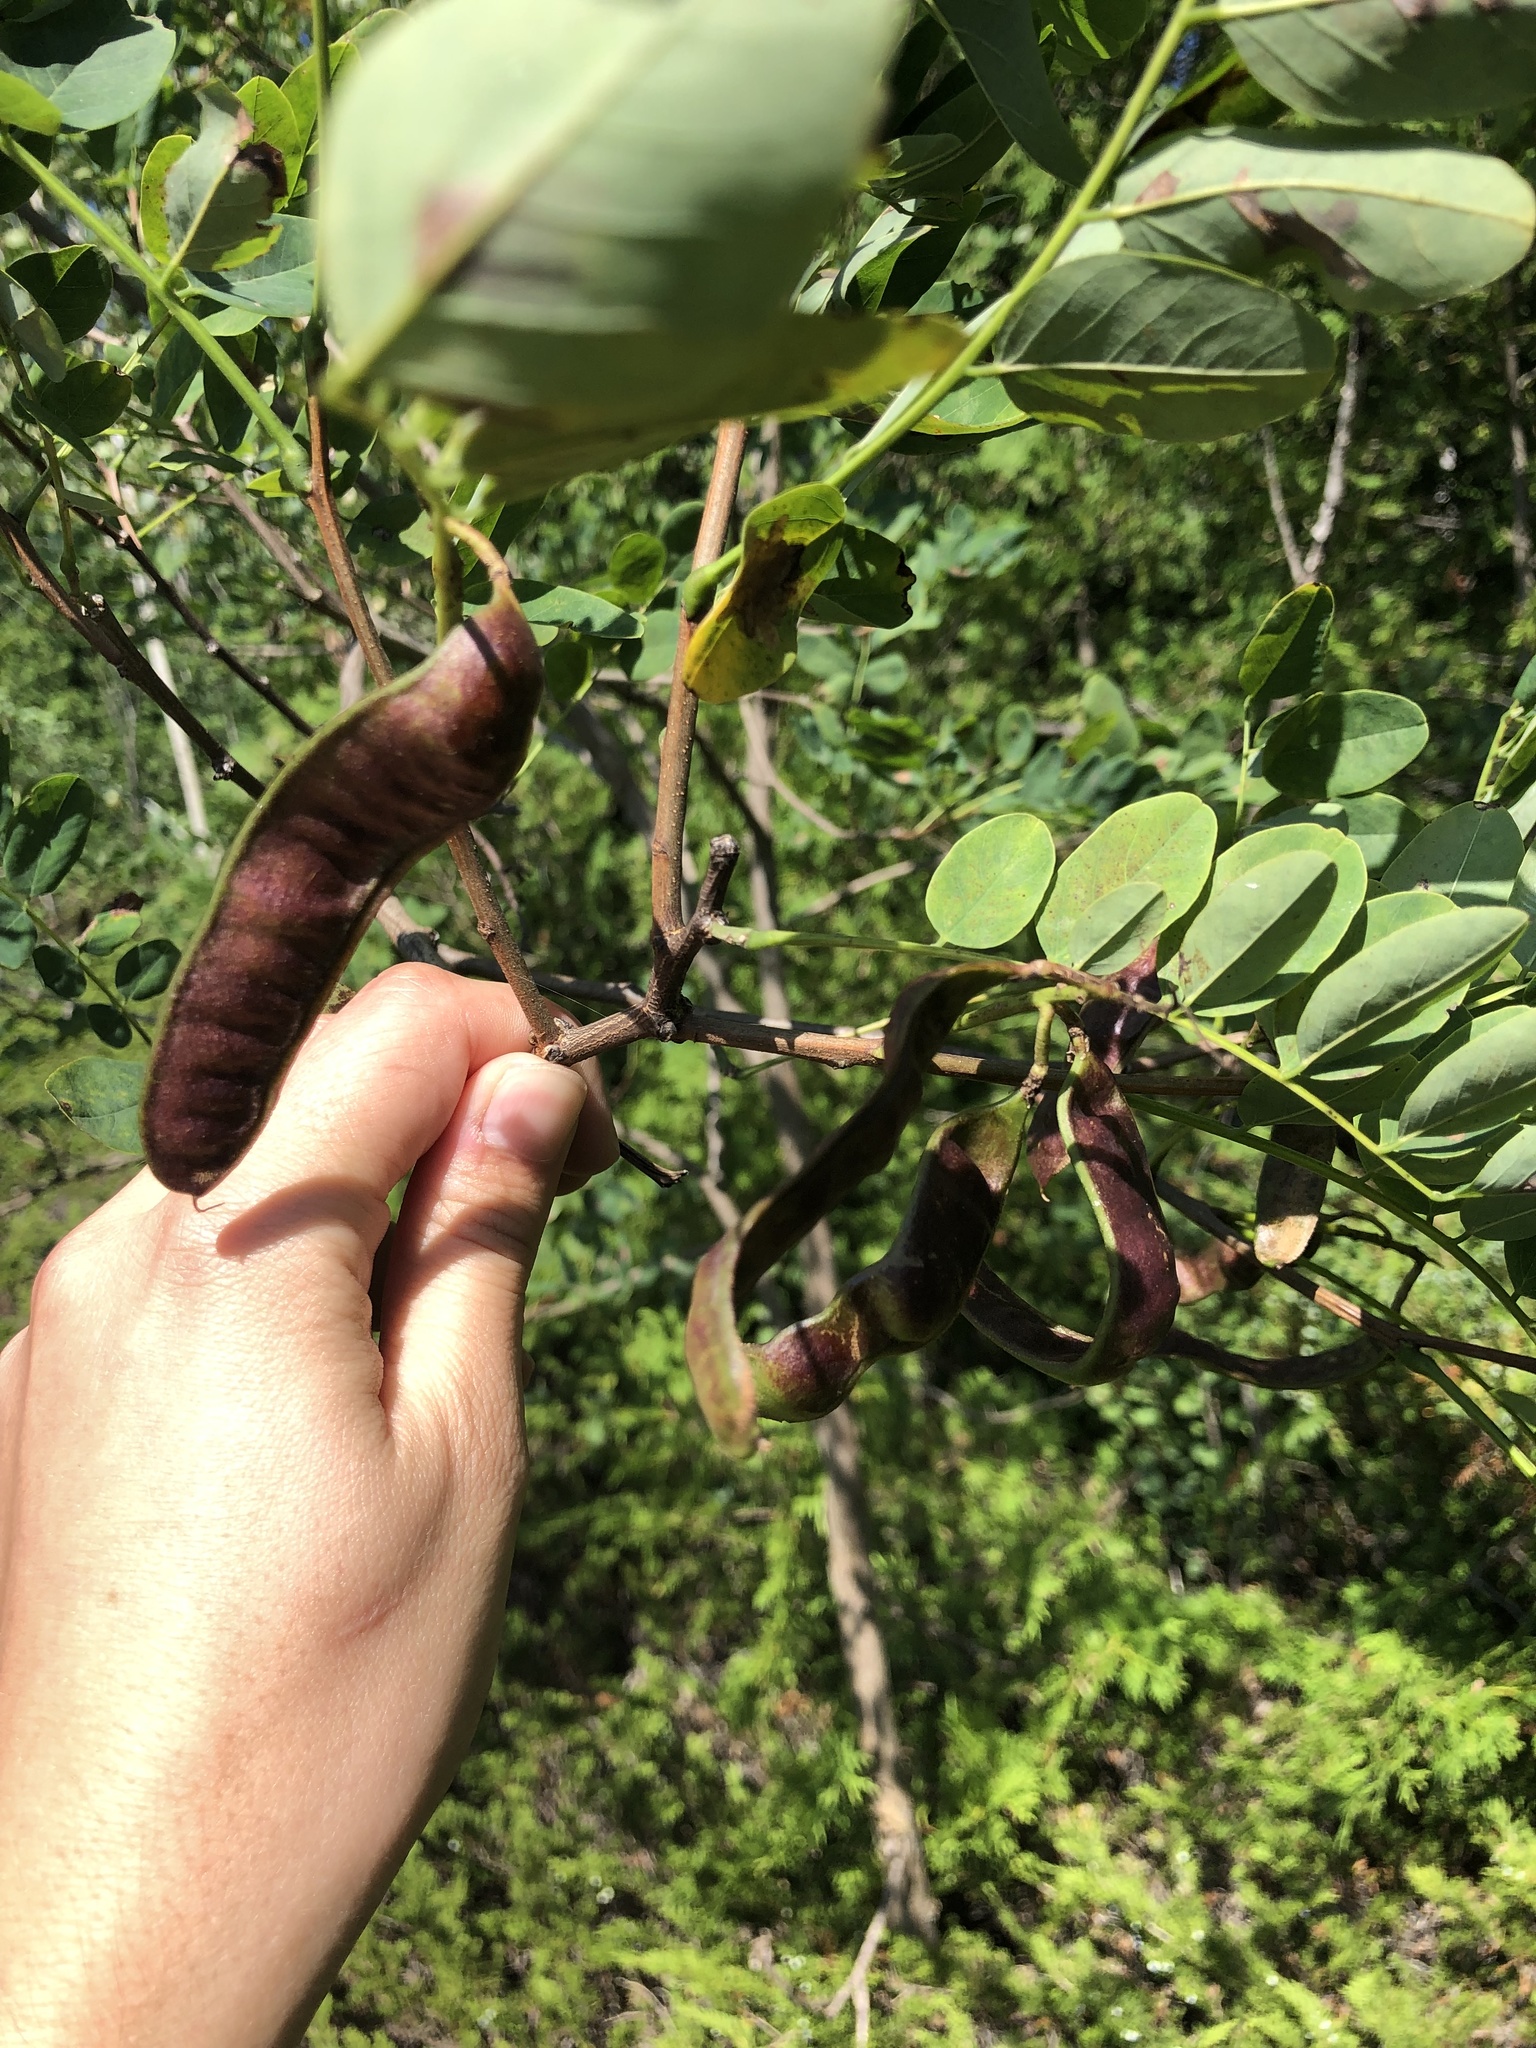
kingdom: Plantae
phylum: Tracheophyta
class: Magnoliopsida
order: Fabales
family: Fabaceae
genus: Robinia
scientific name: Robinia pseudoacacia
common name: Black locust
